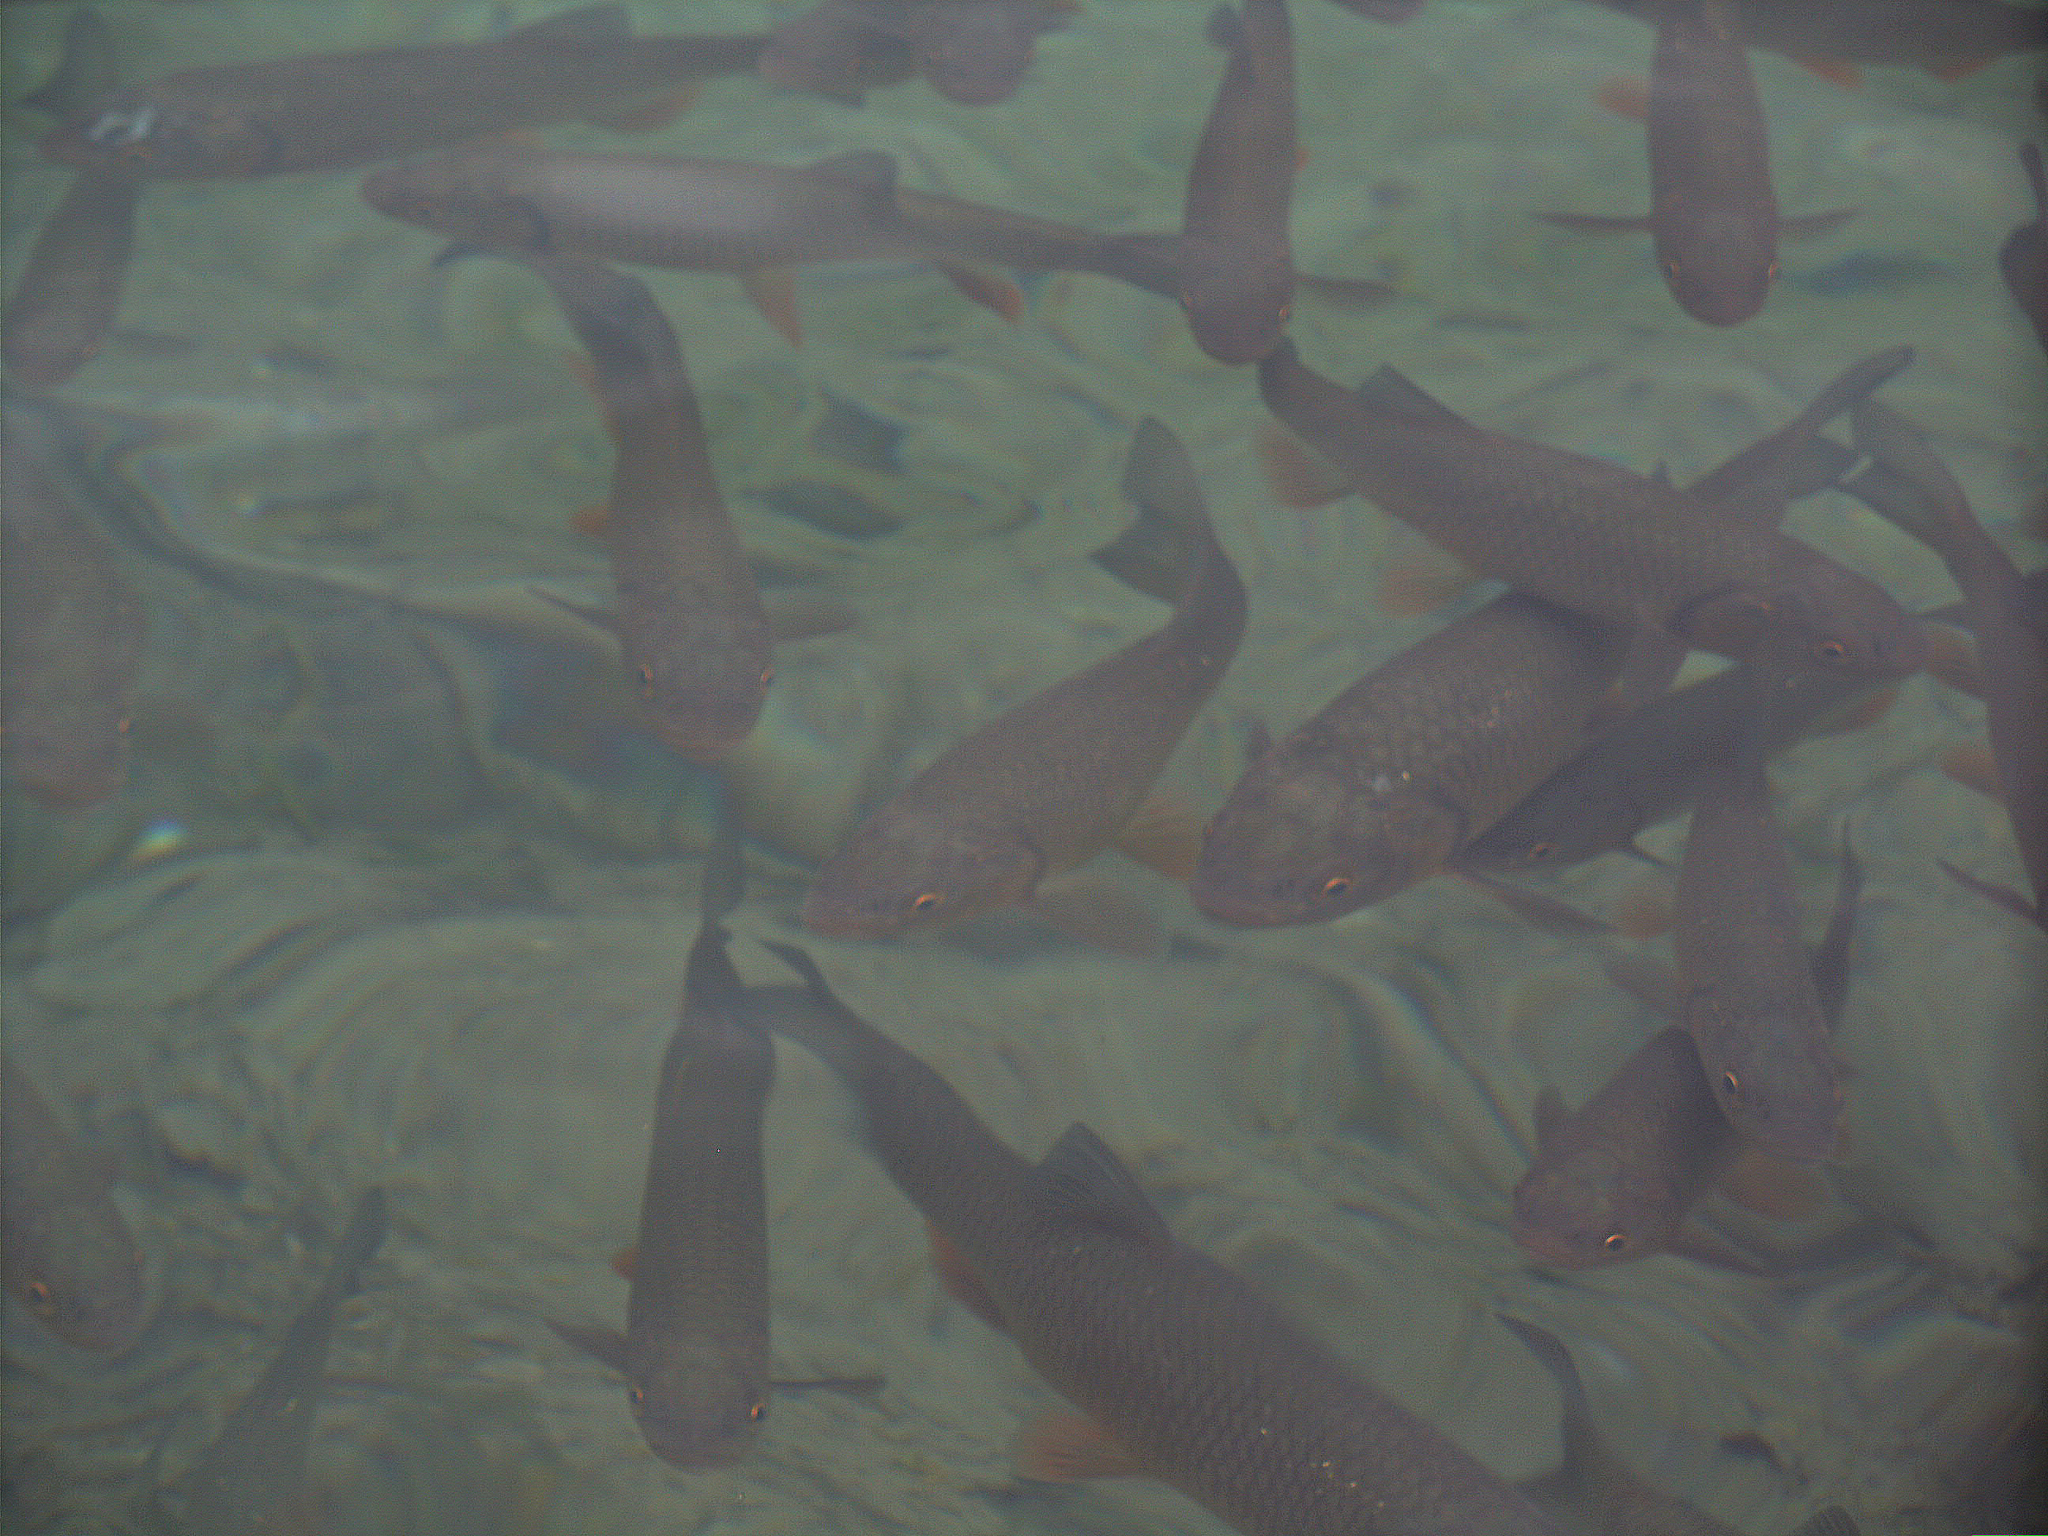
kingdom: Animalia
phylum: Chordata
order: Cypriniformes
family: Cyprinidae
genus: Squalius
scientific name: Squalius cephalus
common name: Chub
